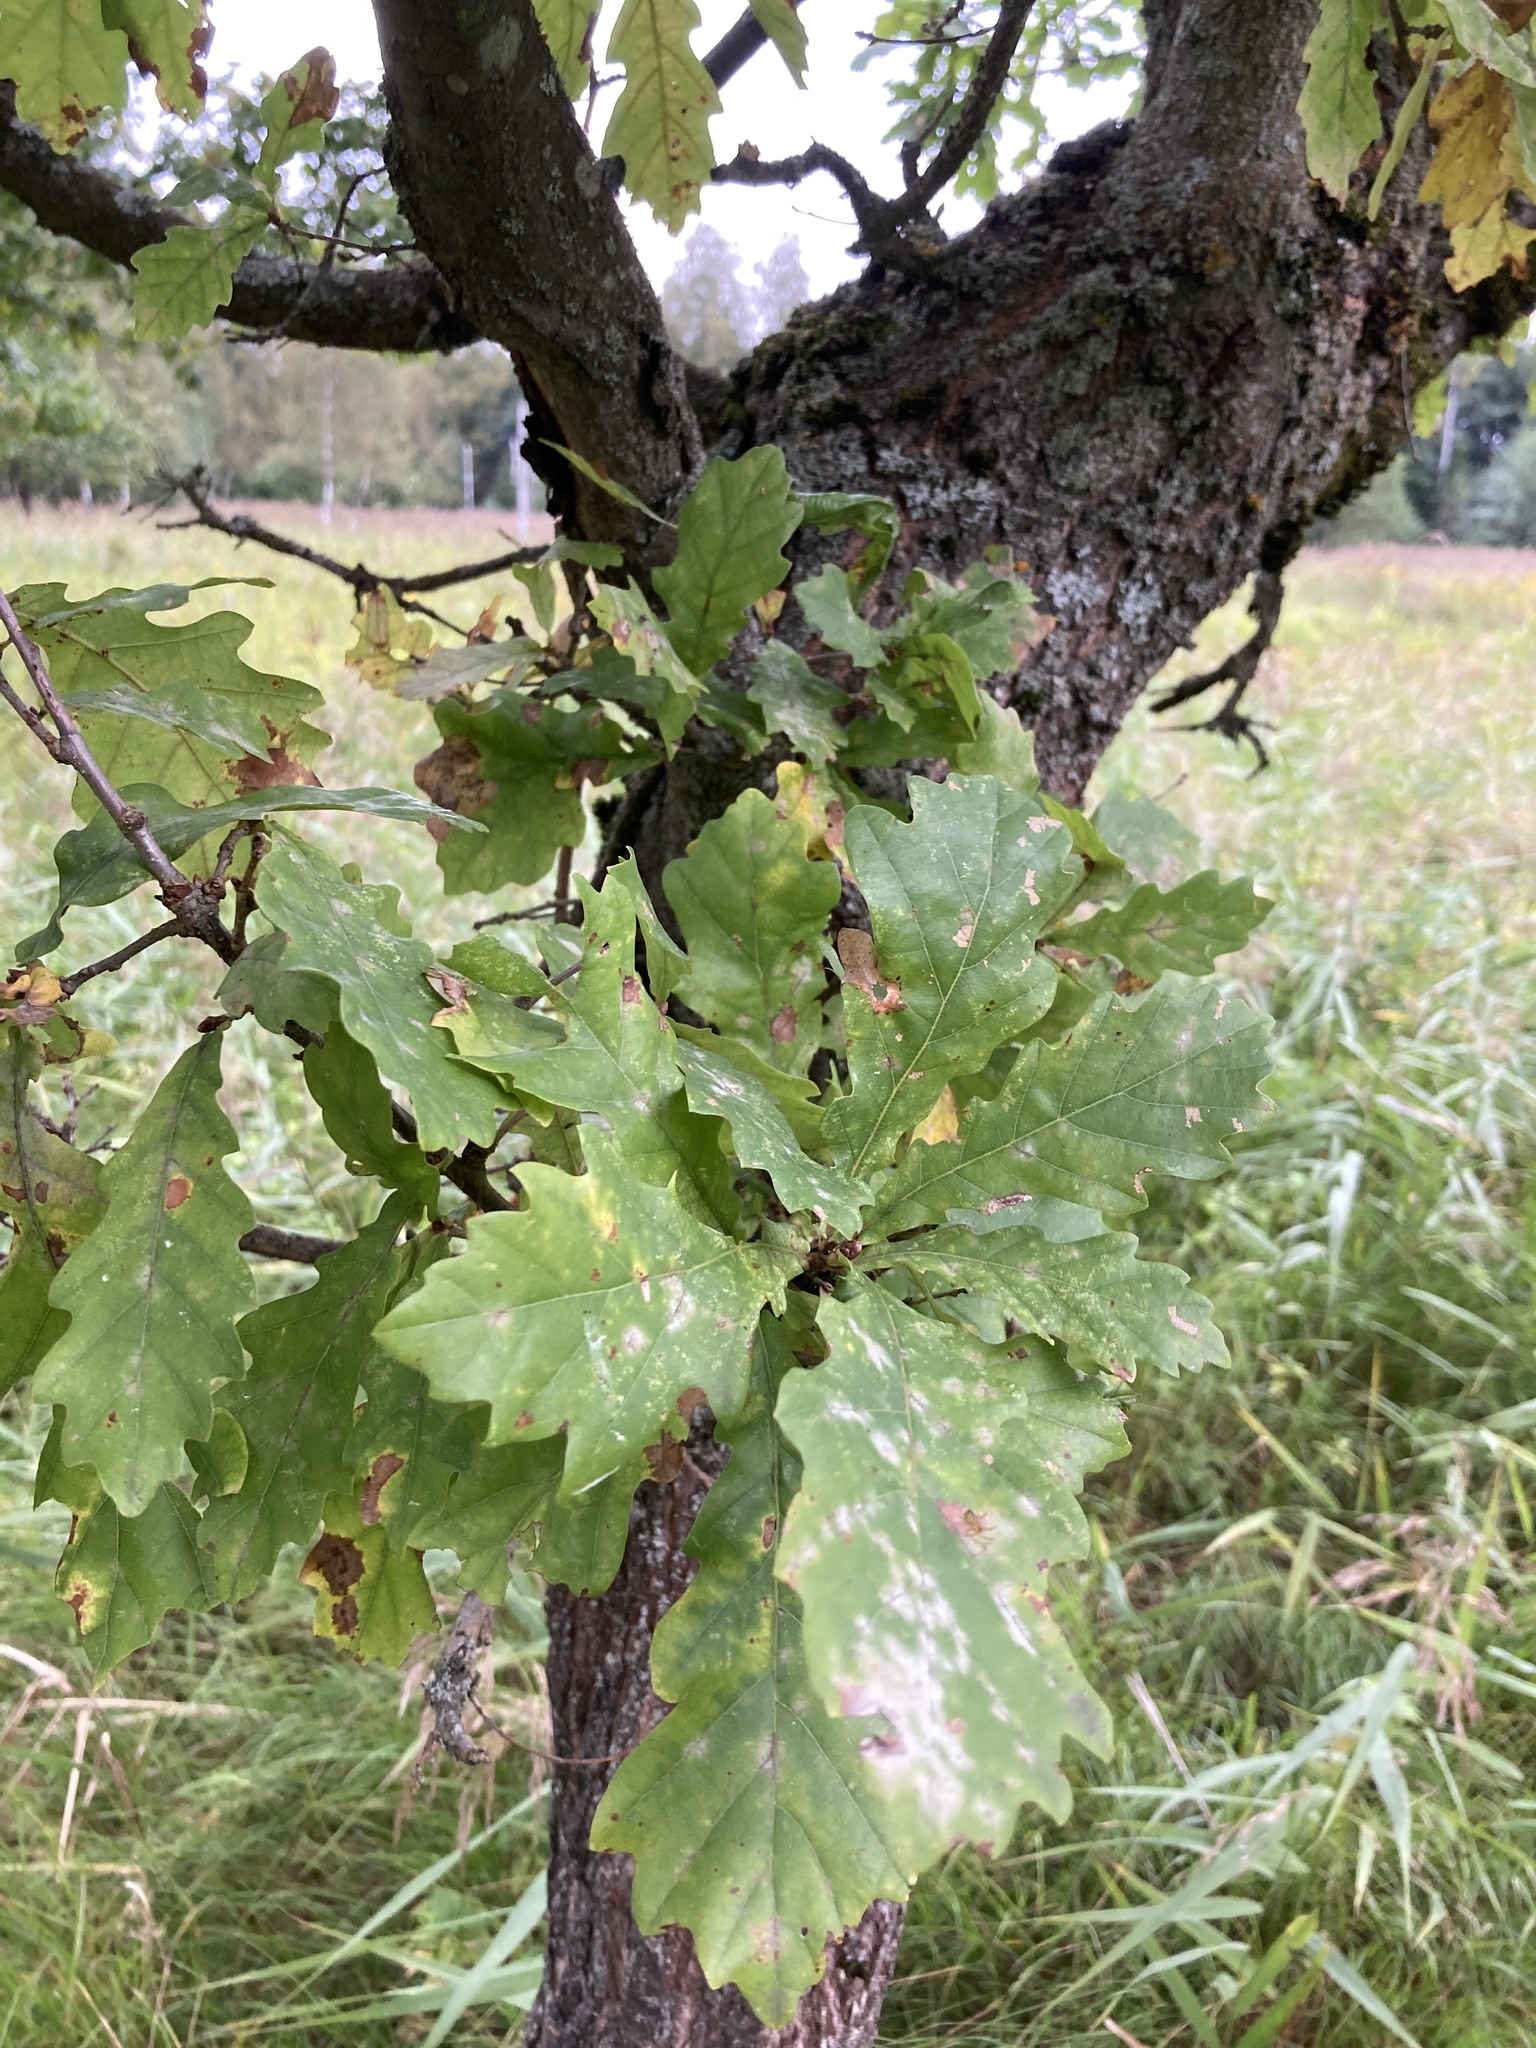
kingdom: Plantae
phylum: Tracheophyta
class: Magnoliopsida
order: Fagales
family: Fagaceae
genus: Quercus
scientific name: Quercus robur
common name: Pedunculate oak
